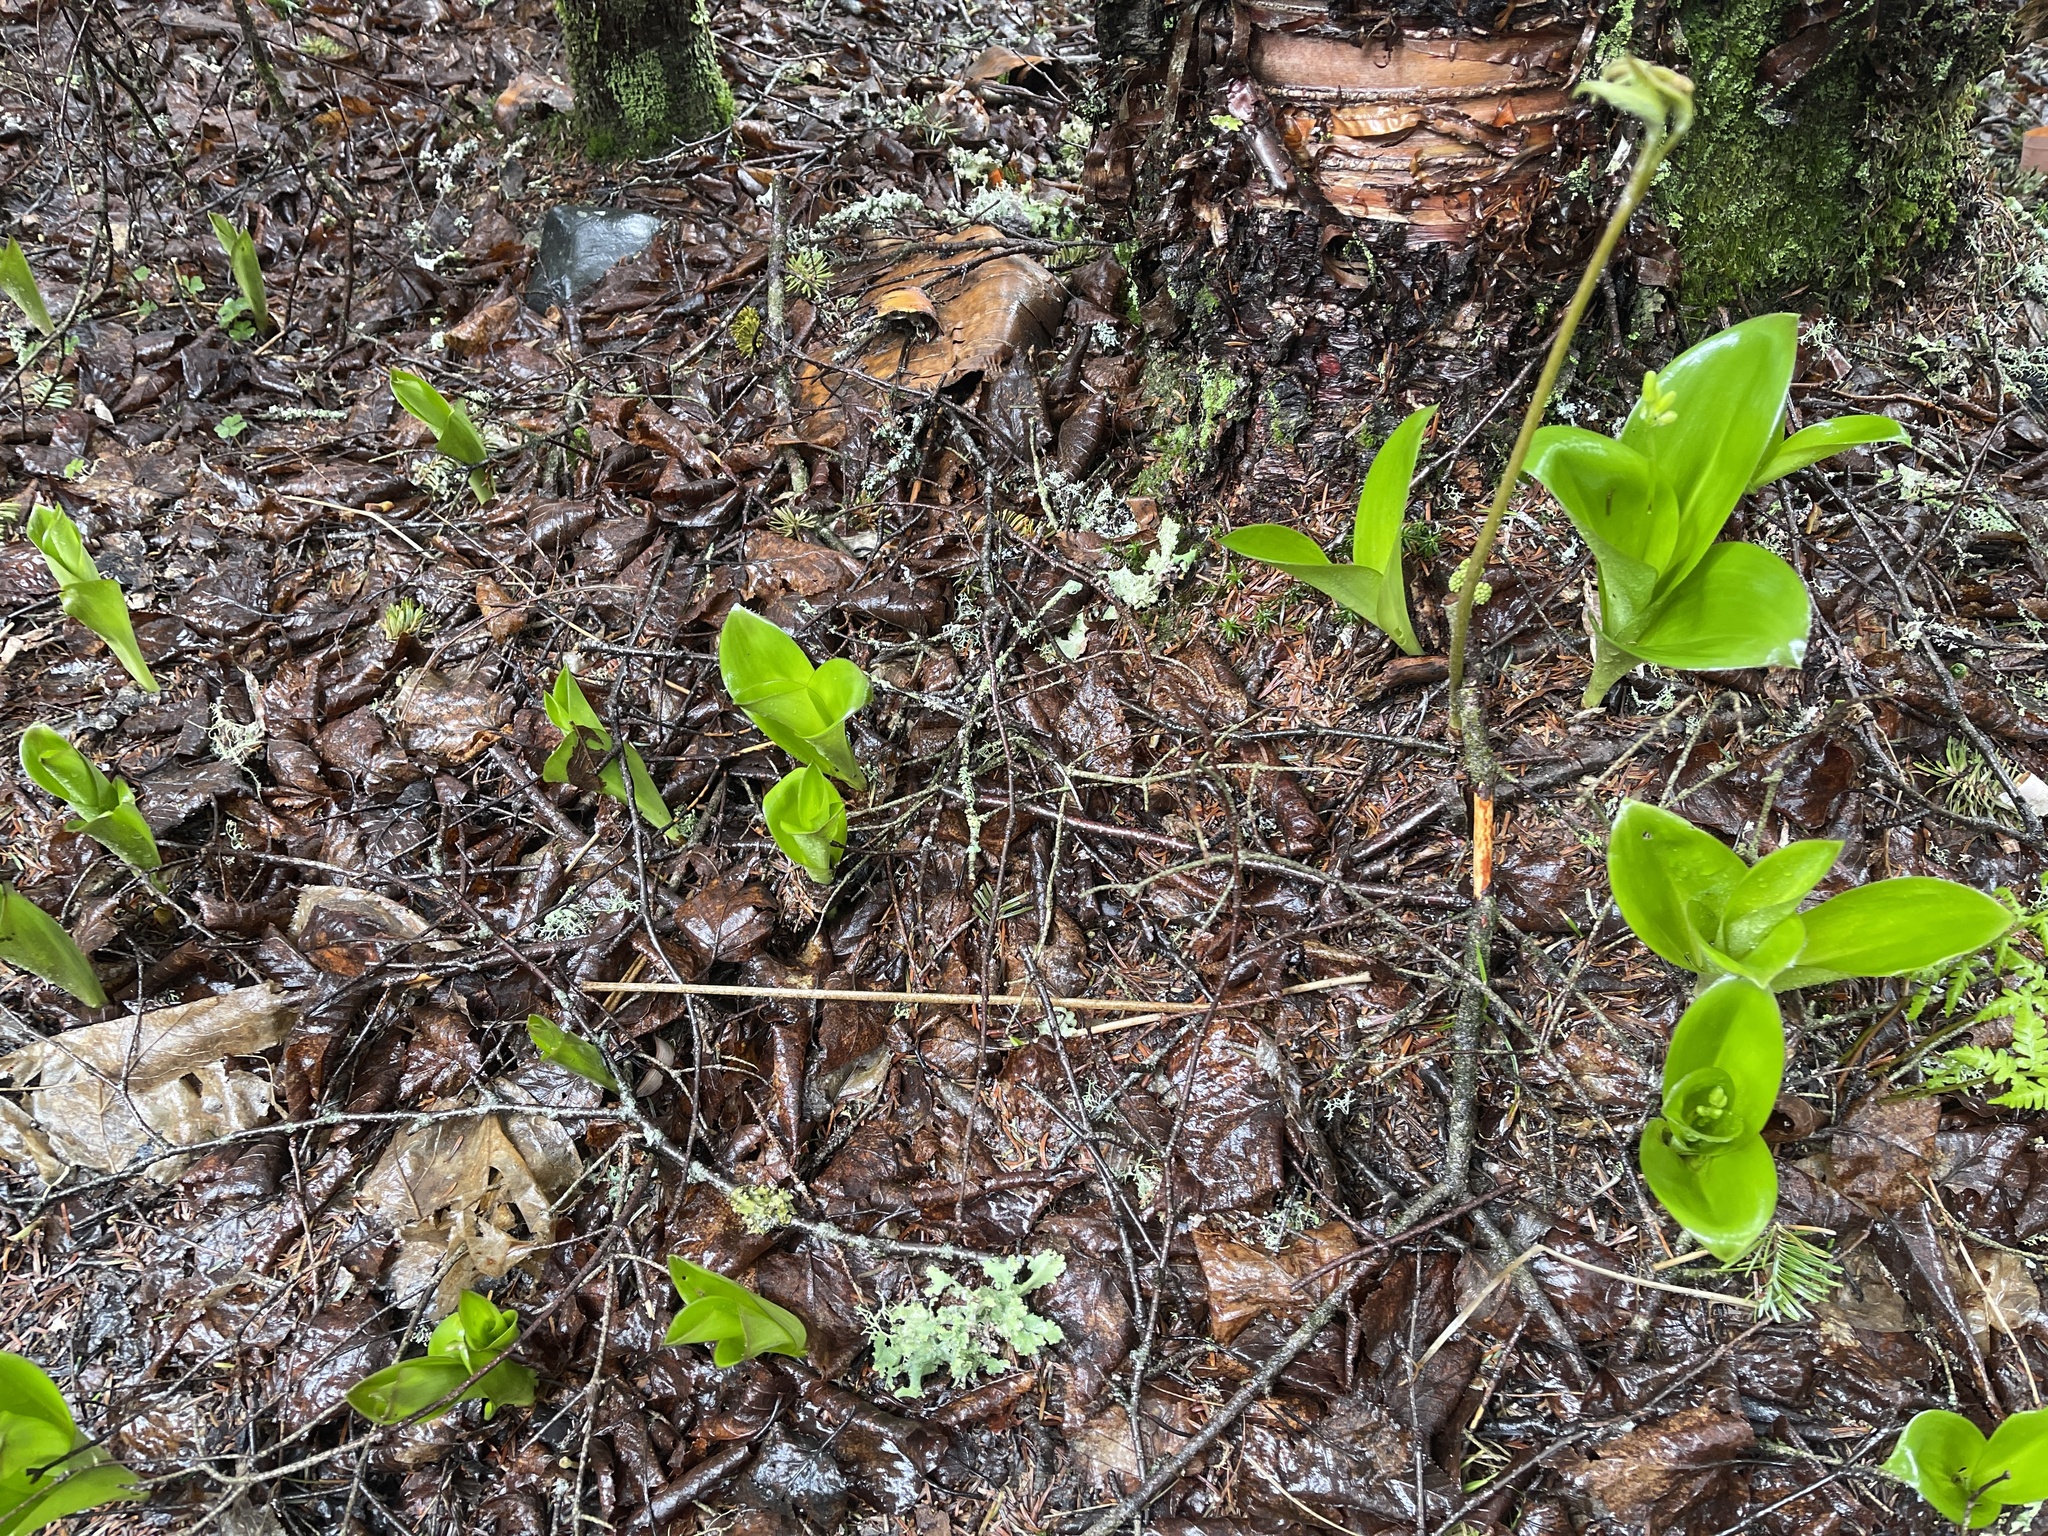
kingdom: Plantae
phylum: Tracheophyta
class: Liliopsida
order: Liliales
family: Liliaceae
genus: Clintonia
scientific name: Clintonia borealis
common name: Yellow clintonia
